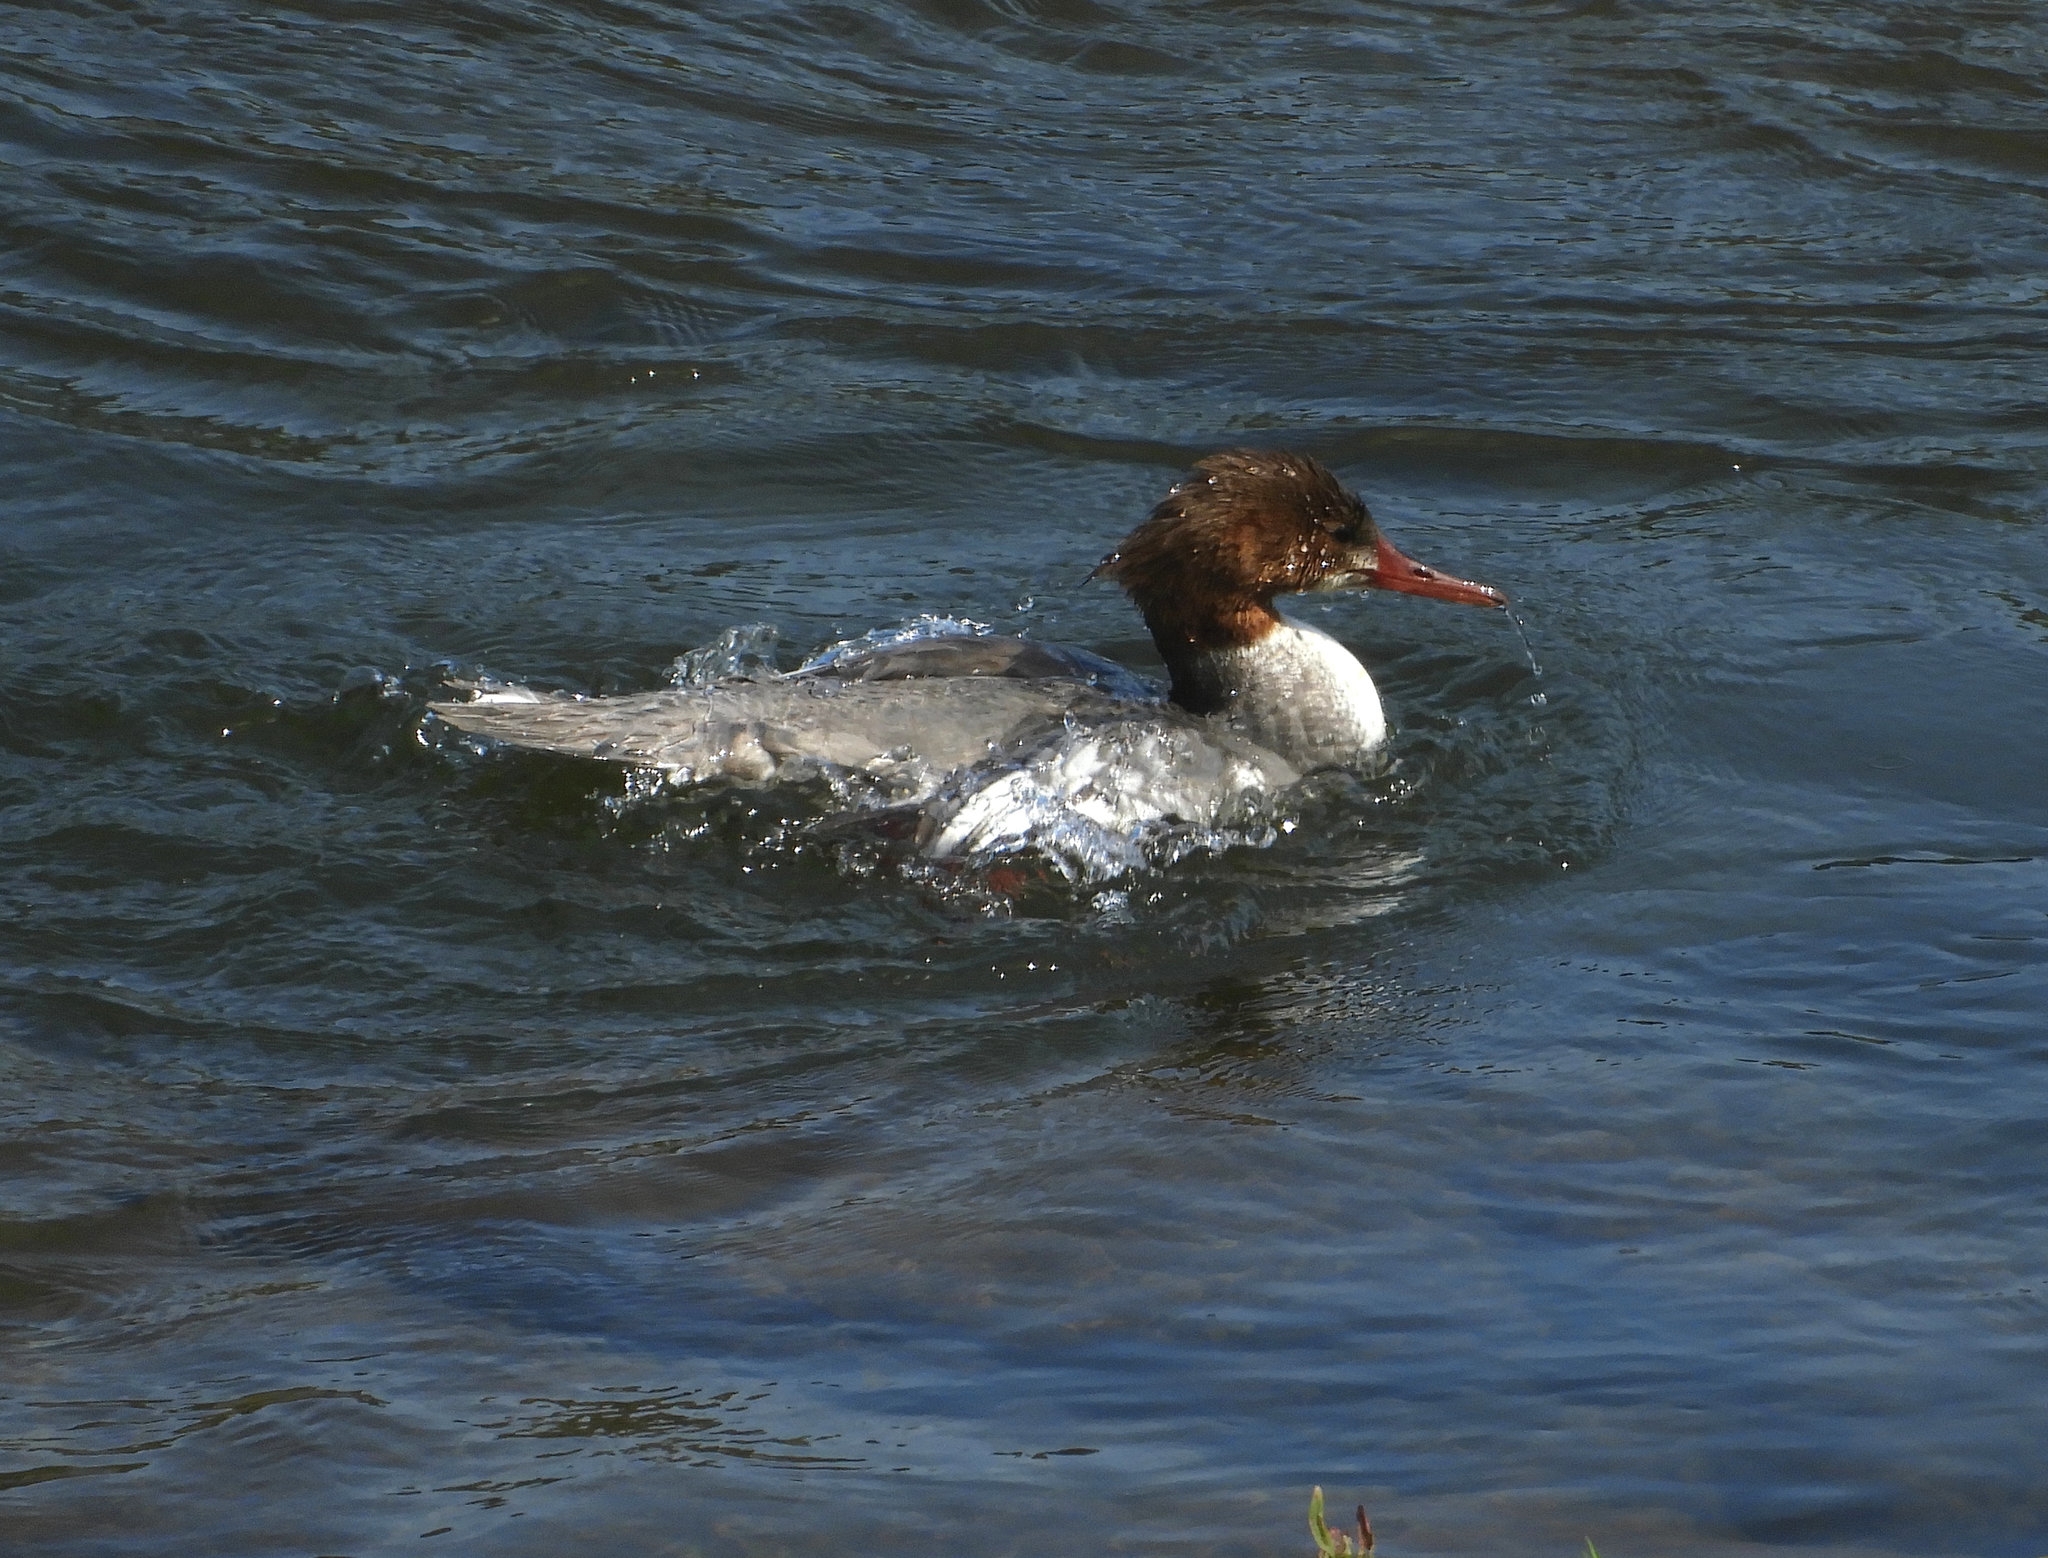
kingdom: Animalia
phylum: Chordata
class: Aves
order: Anseriformes
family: Anatidae
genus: Mergus
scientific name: Mergus merganser
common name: Common merganser
